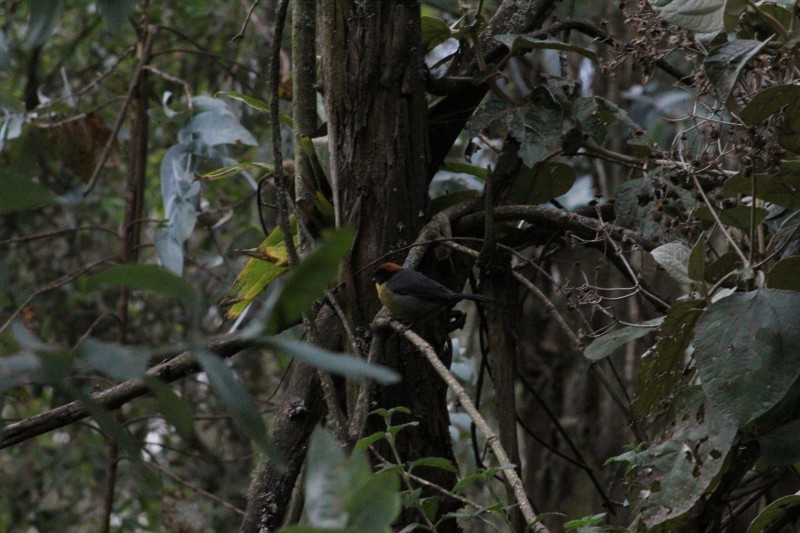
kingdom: Animalia
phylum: Chordata
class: Aves
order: Passeriformes
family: Passerellidae
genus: Atlapetes
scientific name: Atlapetes latinuchus
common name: Yellow-breasted brushfinch
